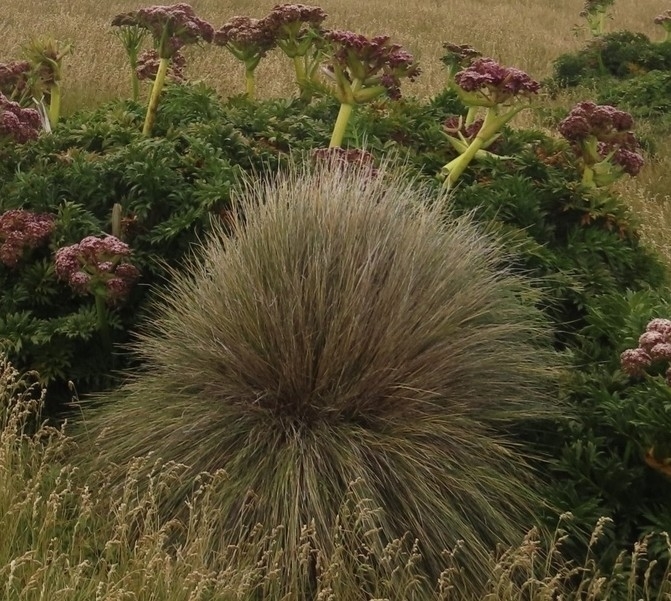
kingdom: Plantae
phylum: Tracheophyta
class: Liliopsida
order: Poales
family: Poaceae
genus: Poa
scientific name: Poa litorosa
